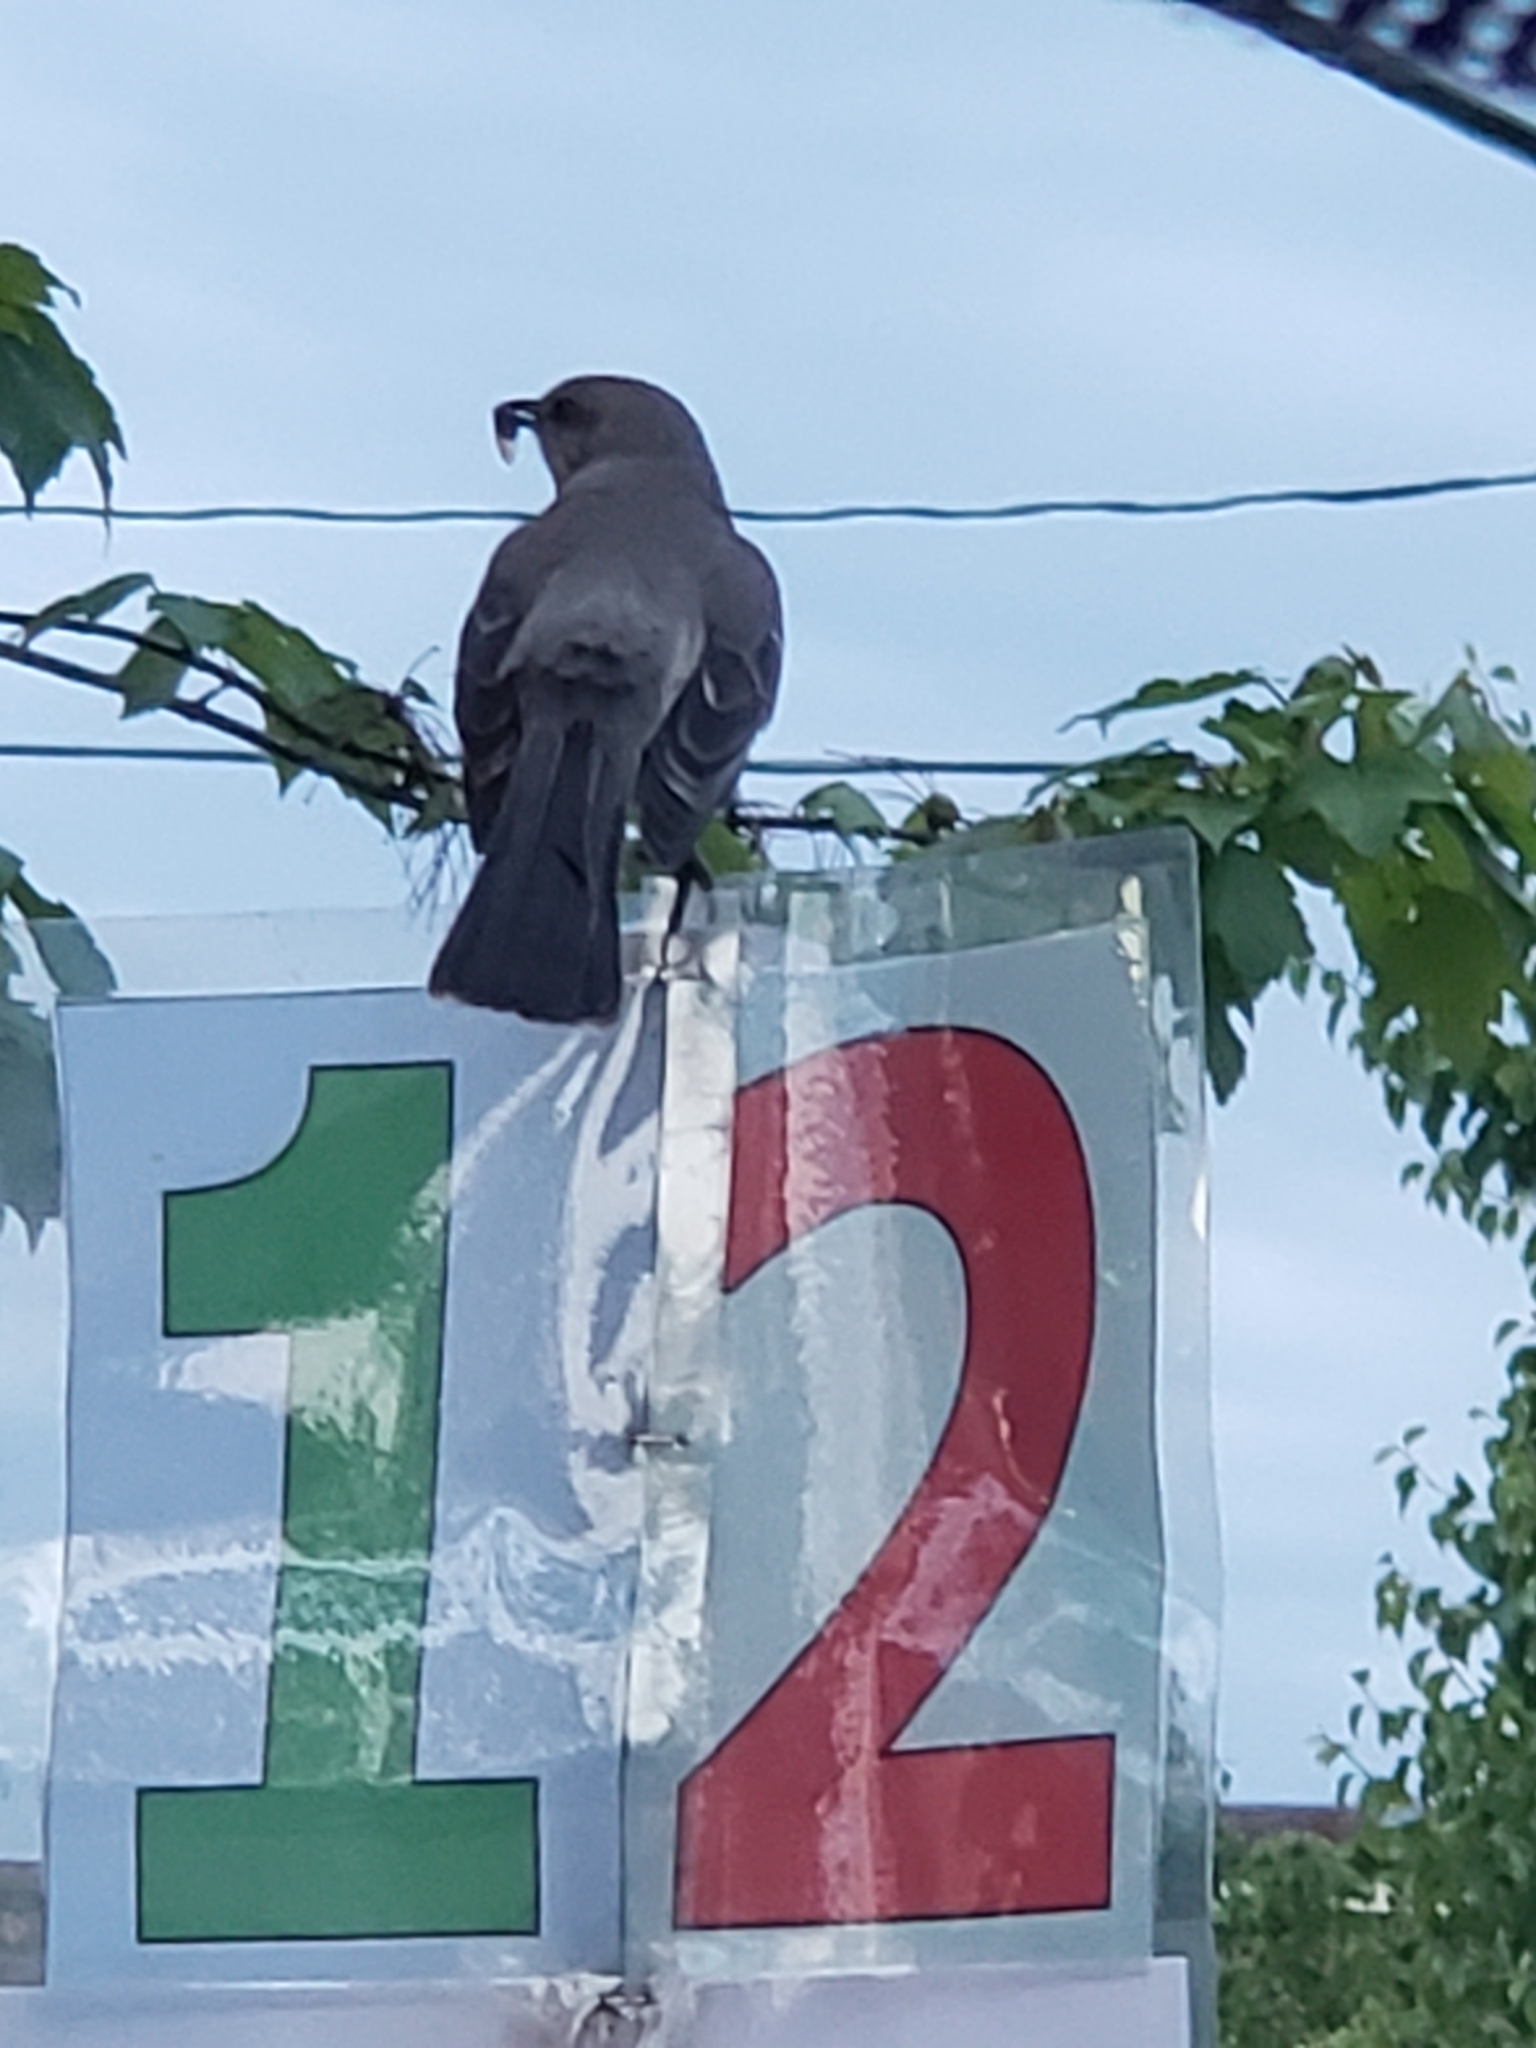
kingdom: Animalia
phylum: Chordata
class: Aves
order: Passeriformes
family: Mimidae
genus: Mimus
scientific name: Mimus polyglottos
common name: Northern mockingbird
